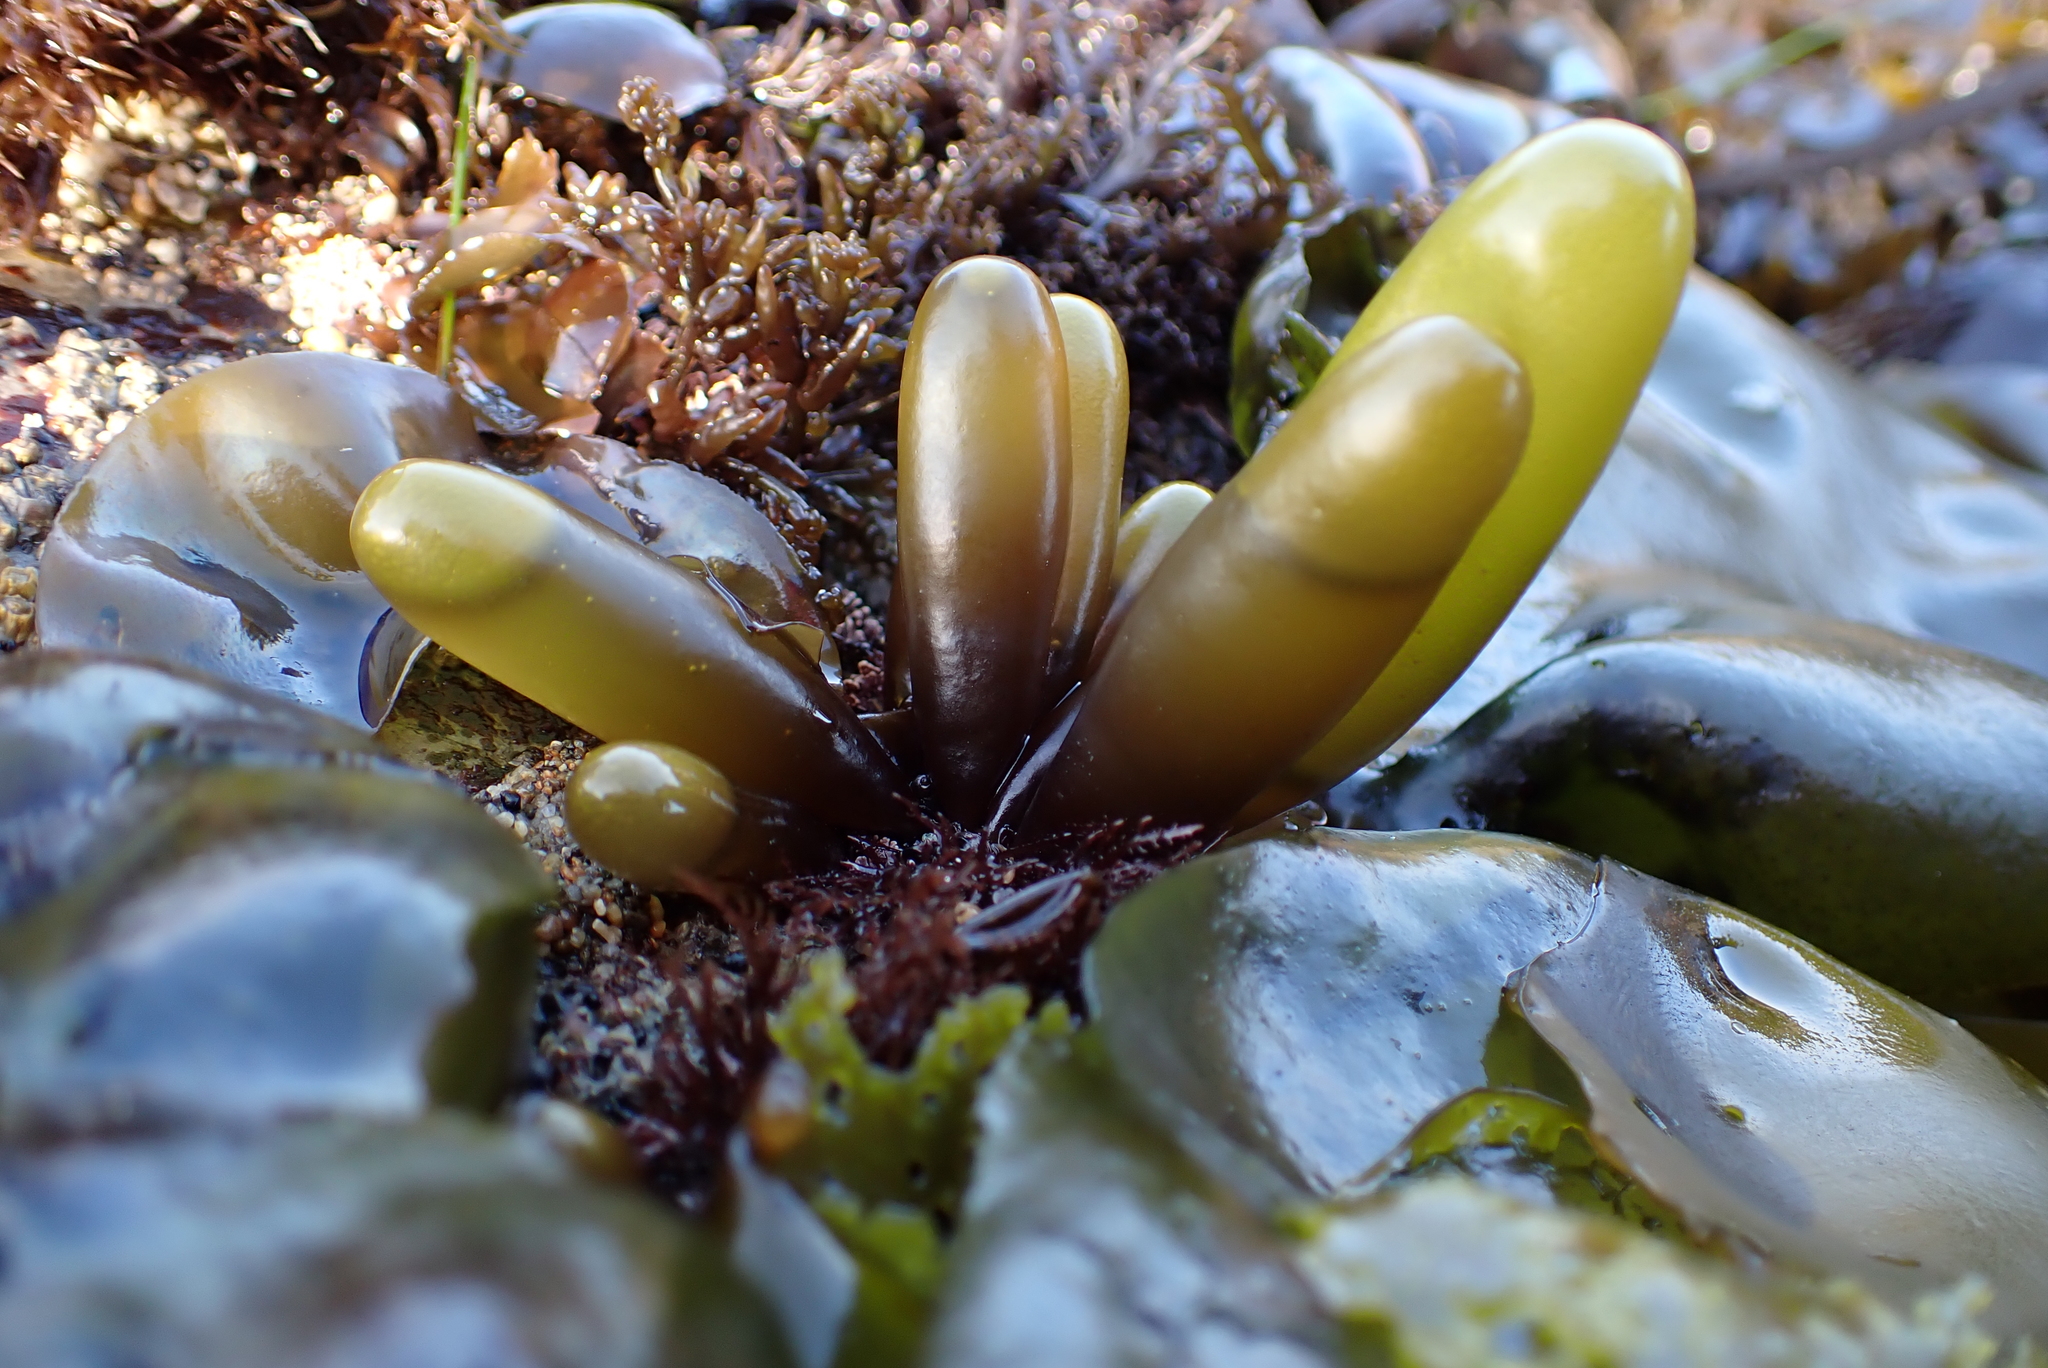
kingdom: Plantae
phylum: Rhodophyta
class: Florideophyceae
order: Palmariales
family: Palmariaceae
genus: Halosaccion
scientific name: Halosaccion glandiforme
